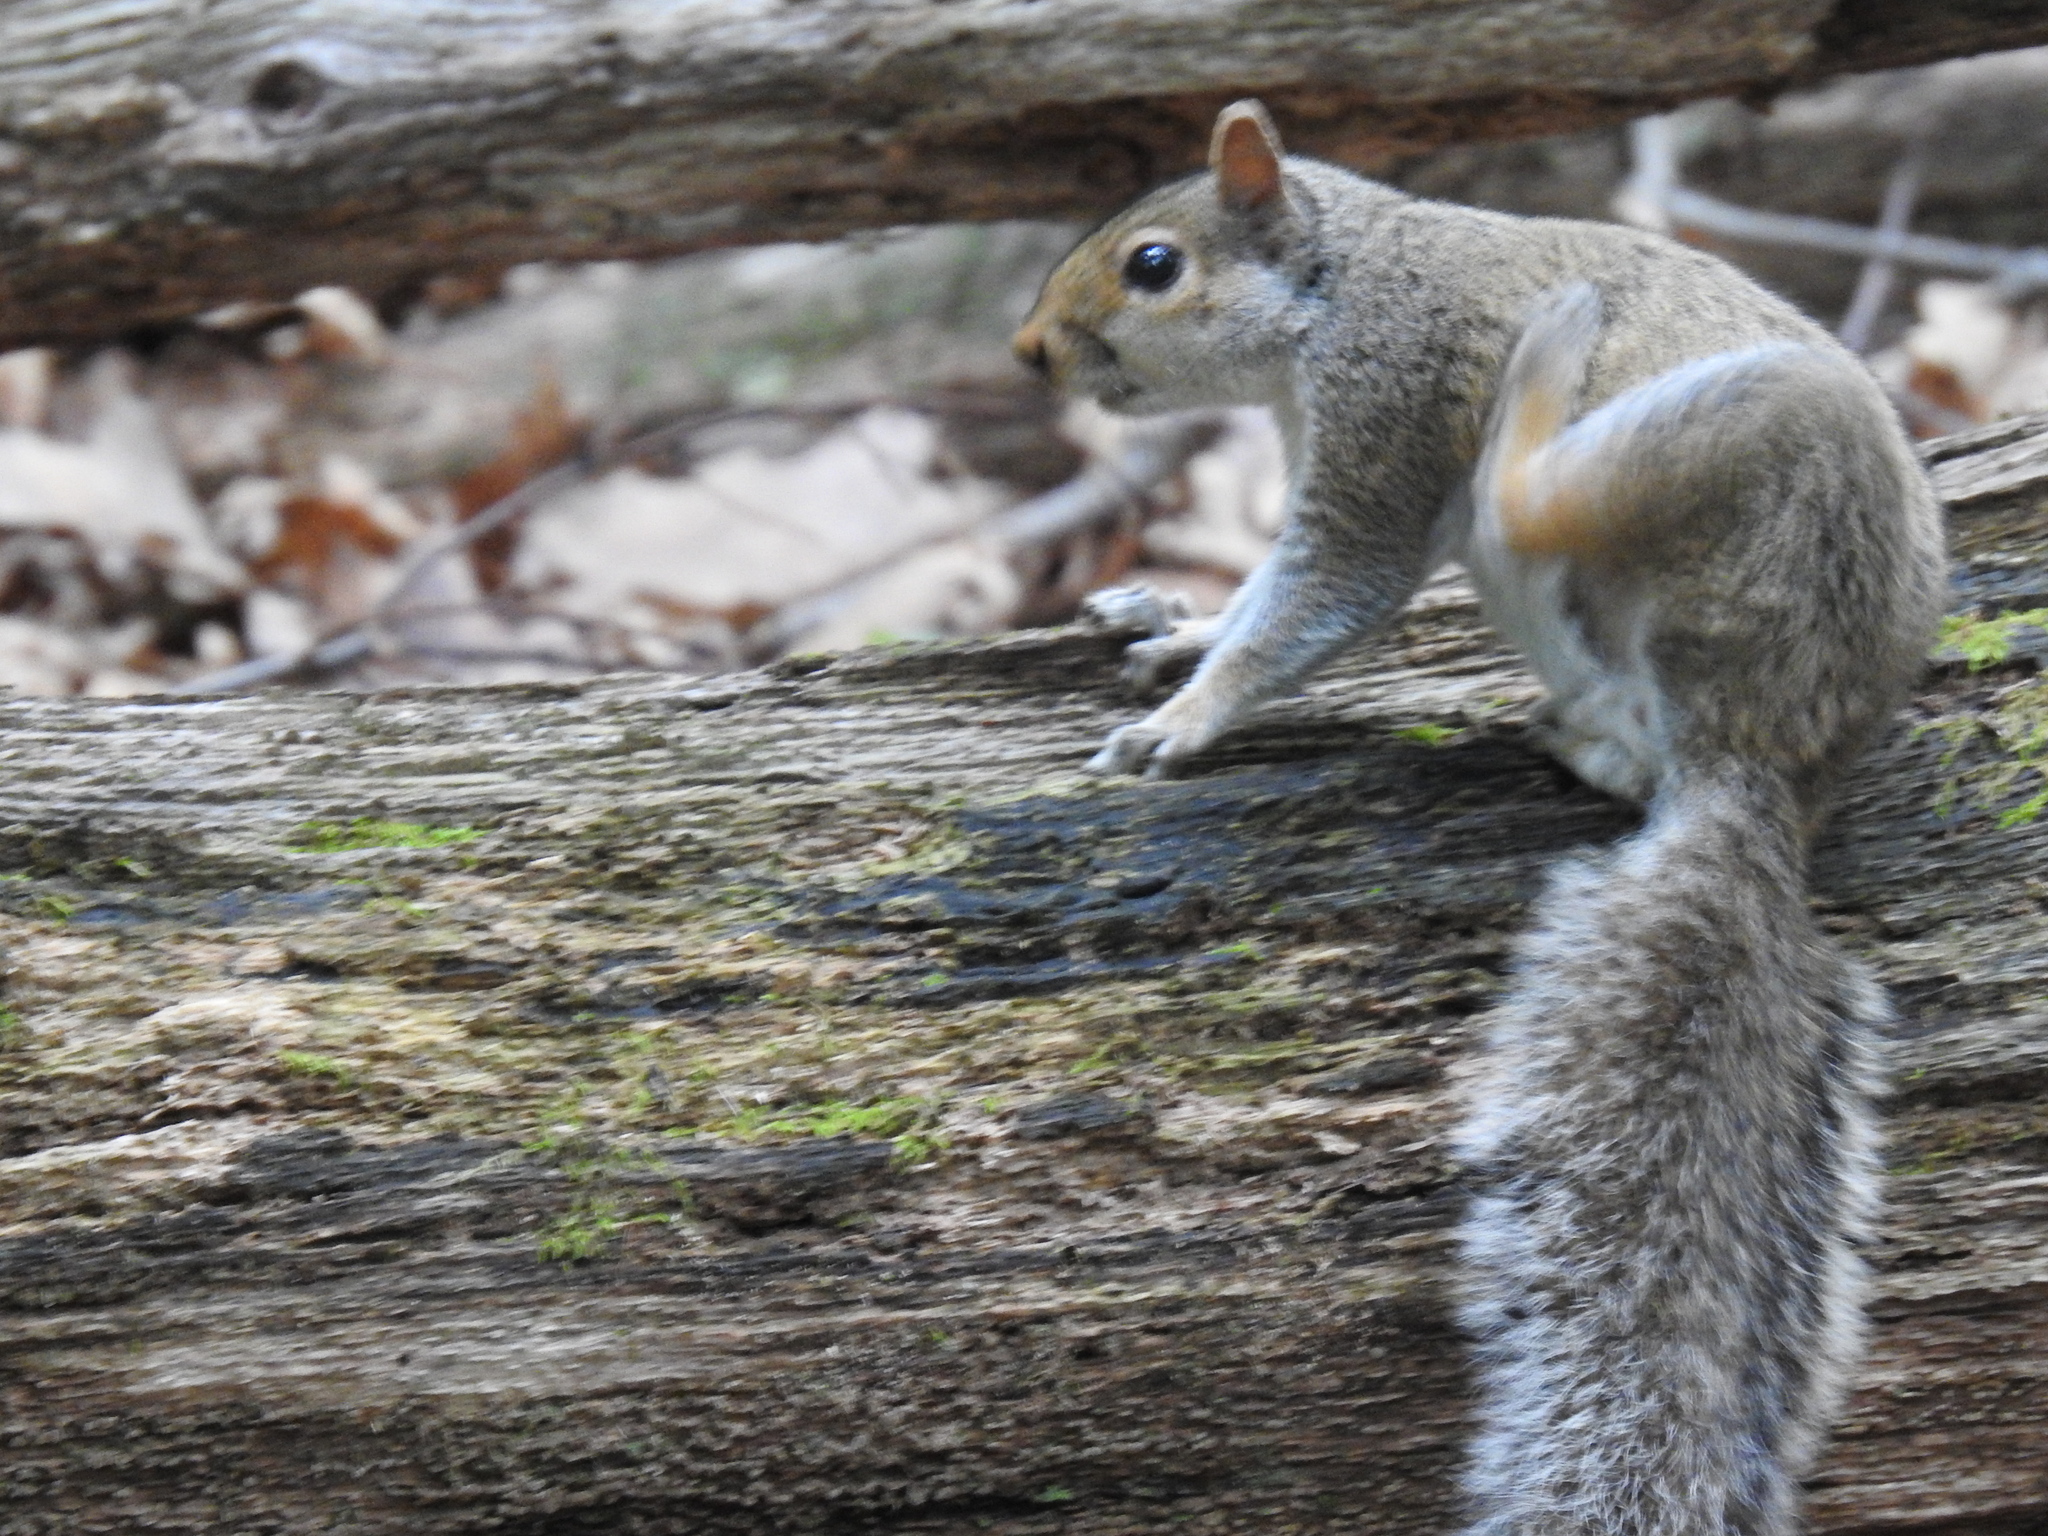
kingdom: Animalia
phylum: Chordata
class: Mammalia
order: Rodentia
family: Sciuridae
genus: Sciurus
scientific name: Sciurus carolinensis
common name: Eastern gray squirrel
